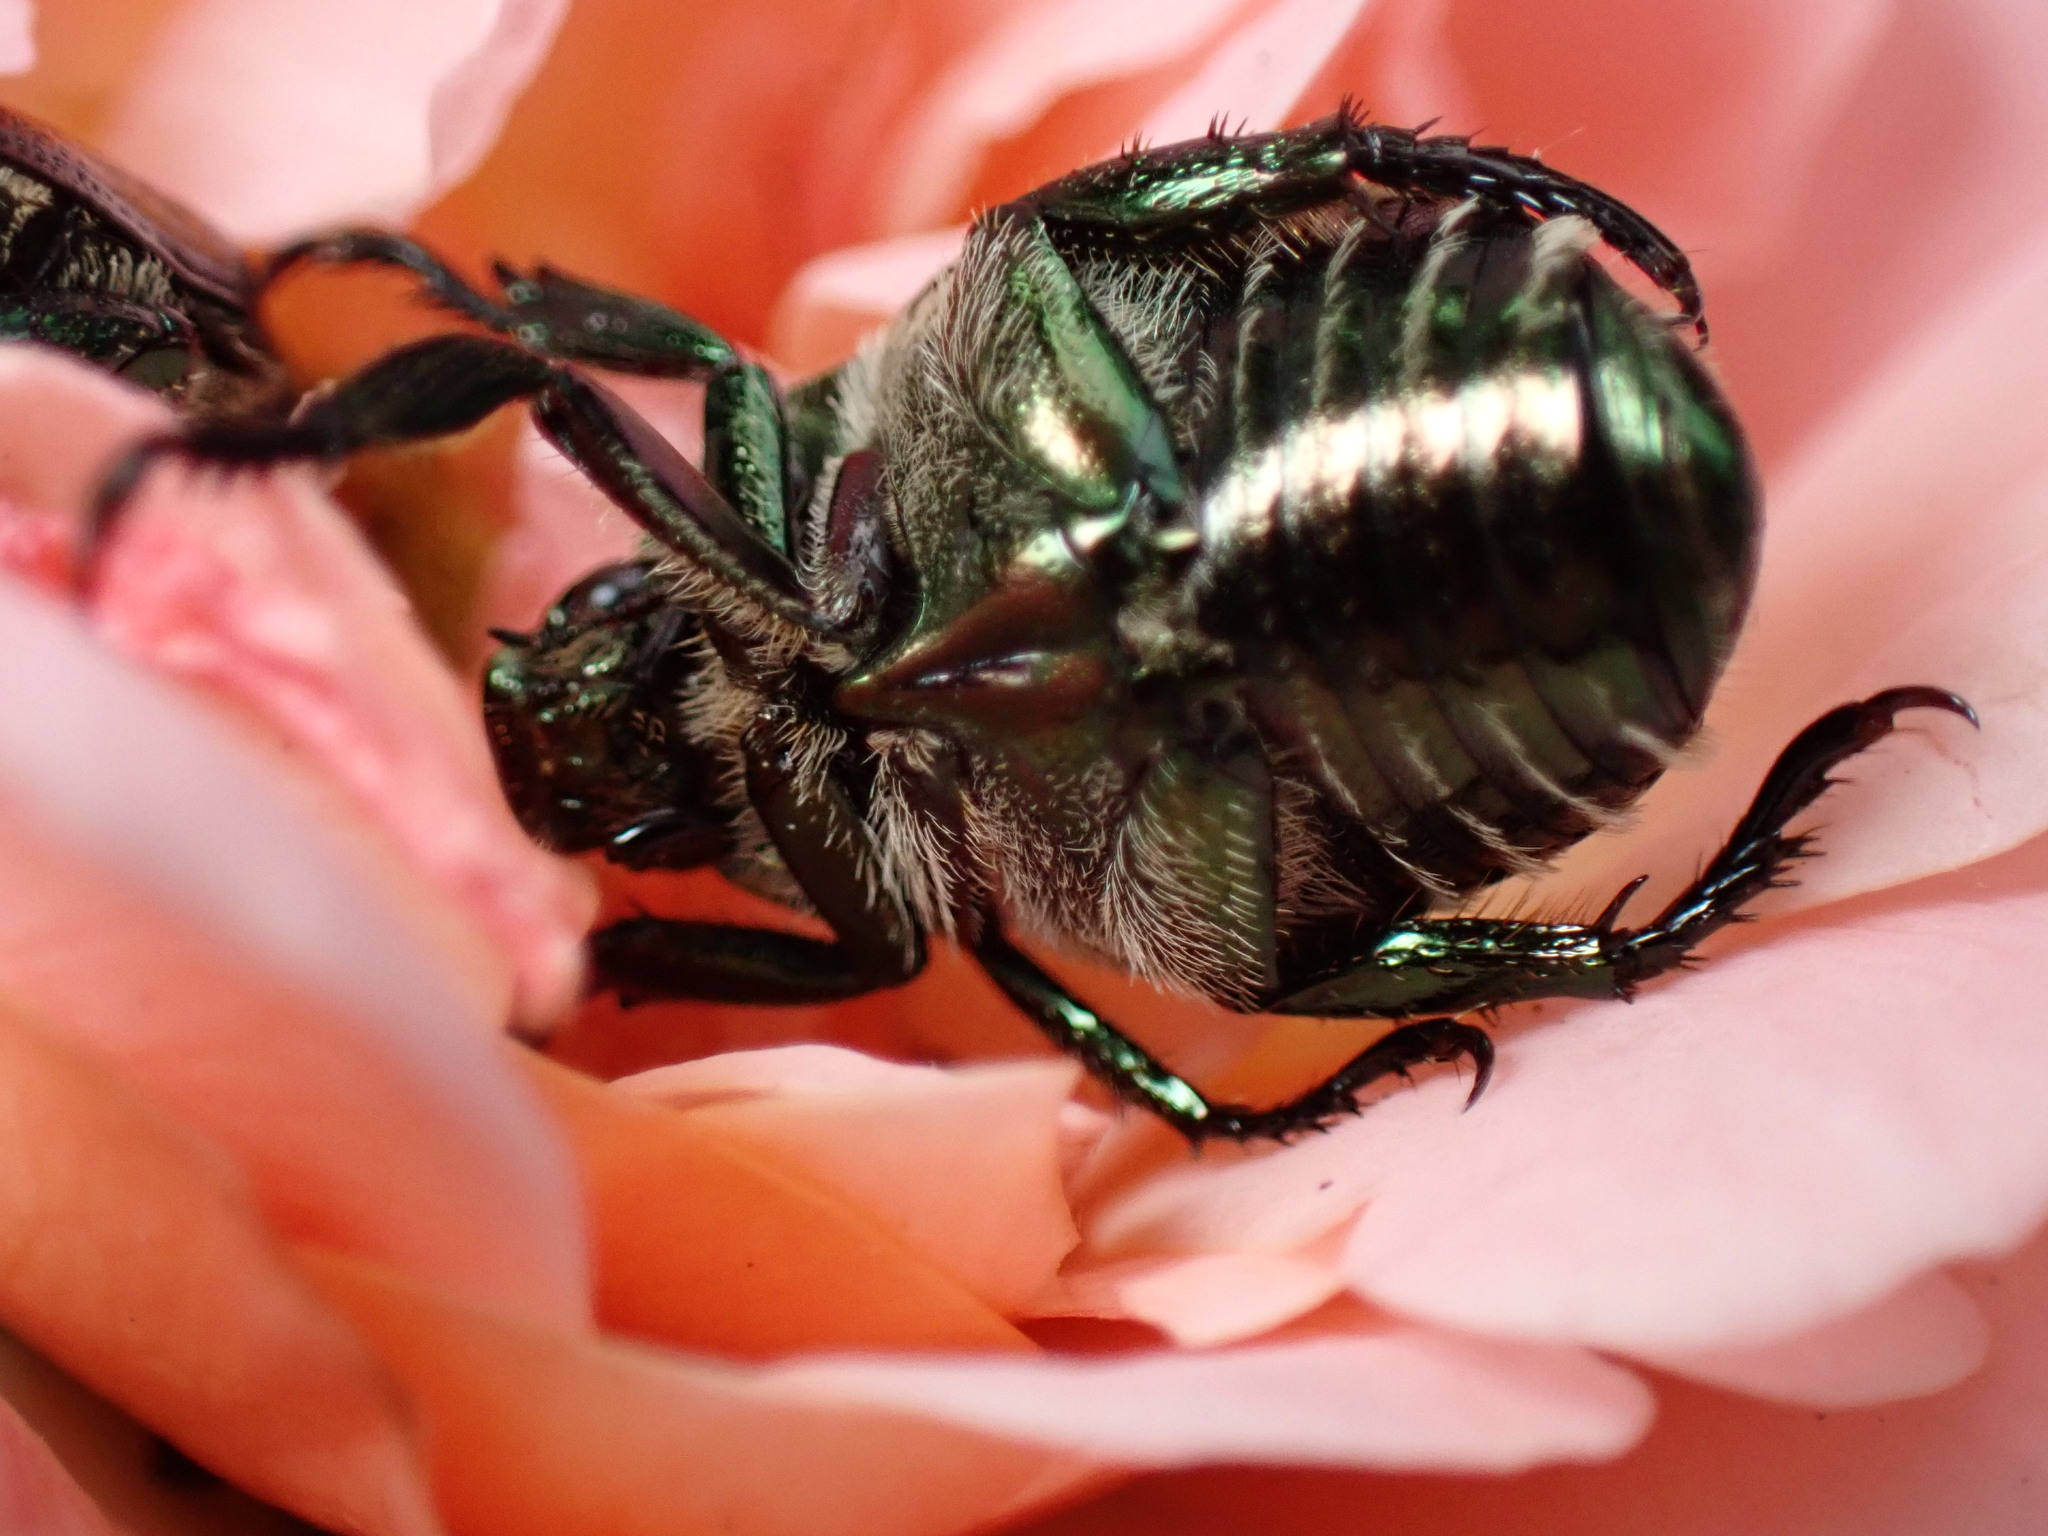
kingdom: Animalia
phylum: Arthropoda
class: Insecta
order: Coleoptera
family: Scarabaeidae
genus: Popillia
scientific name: Popillia japonica
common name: Japanese beetle
